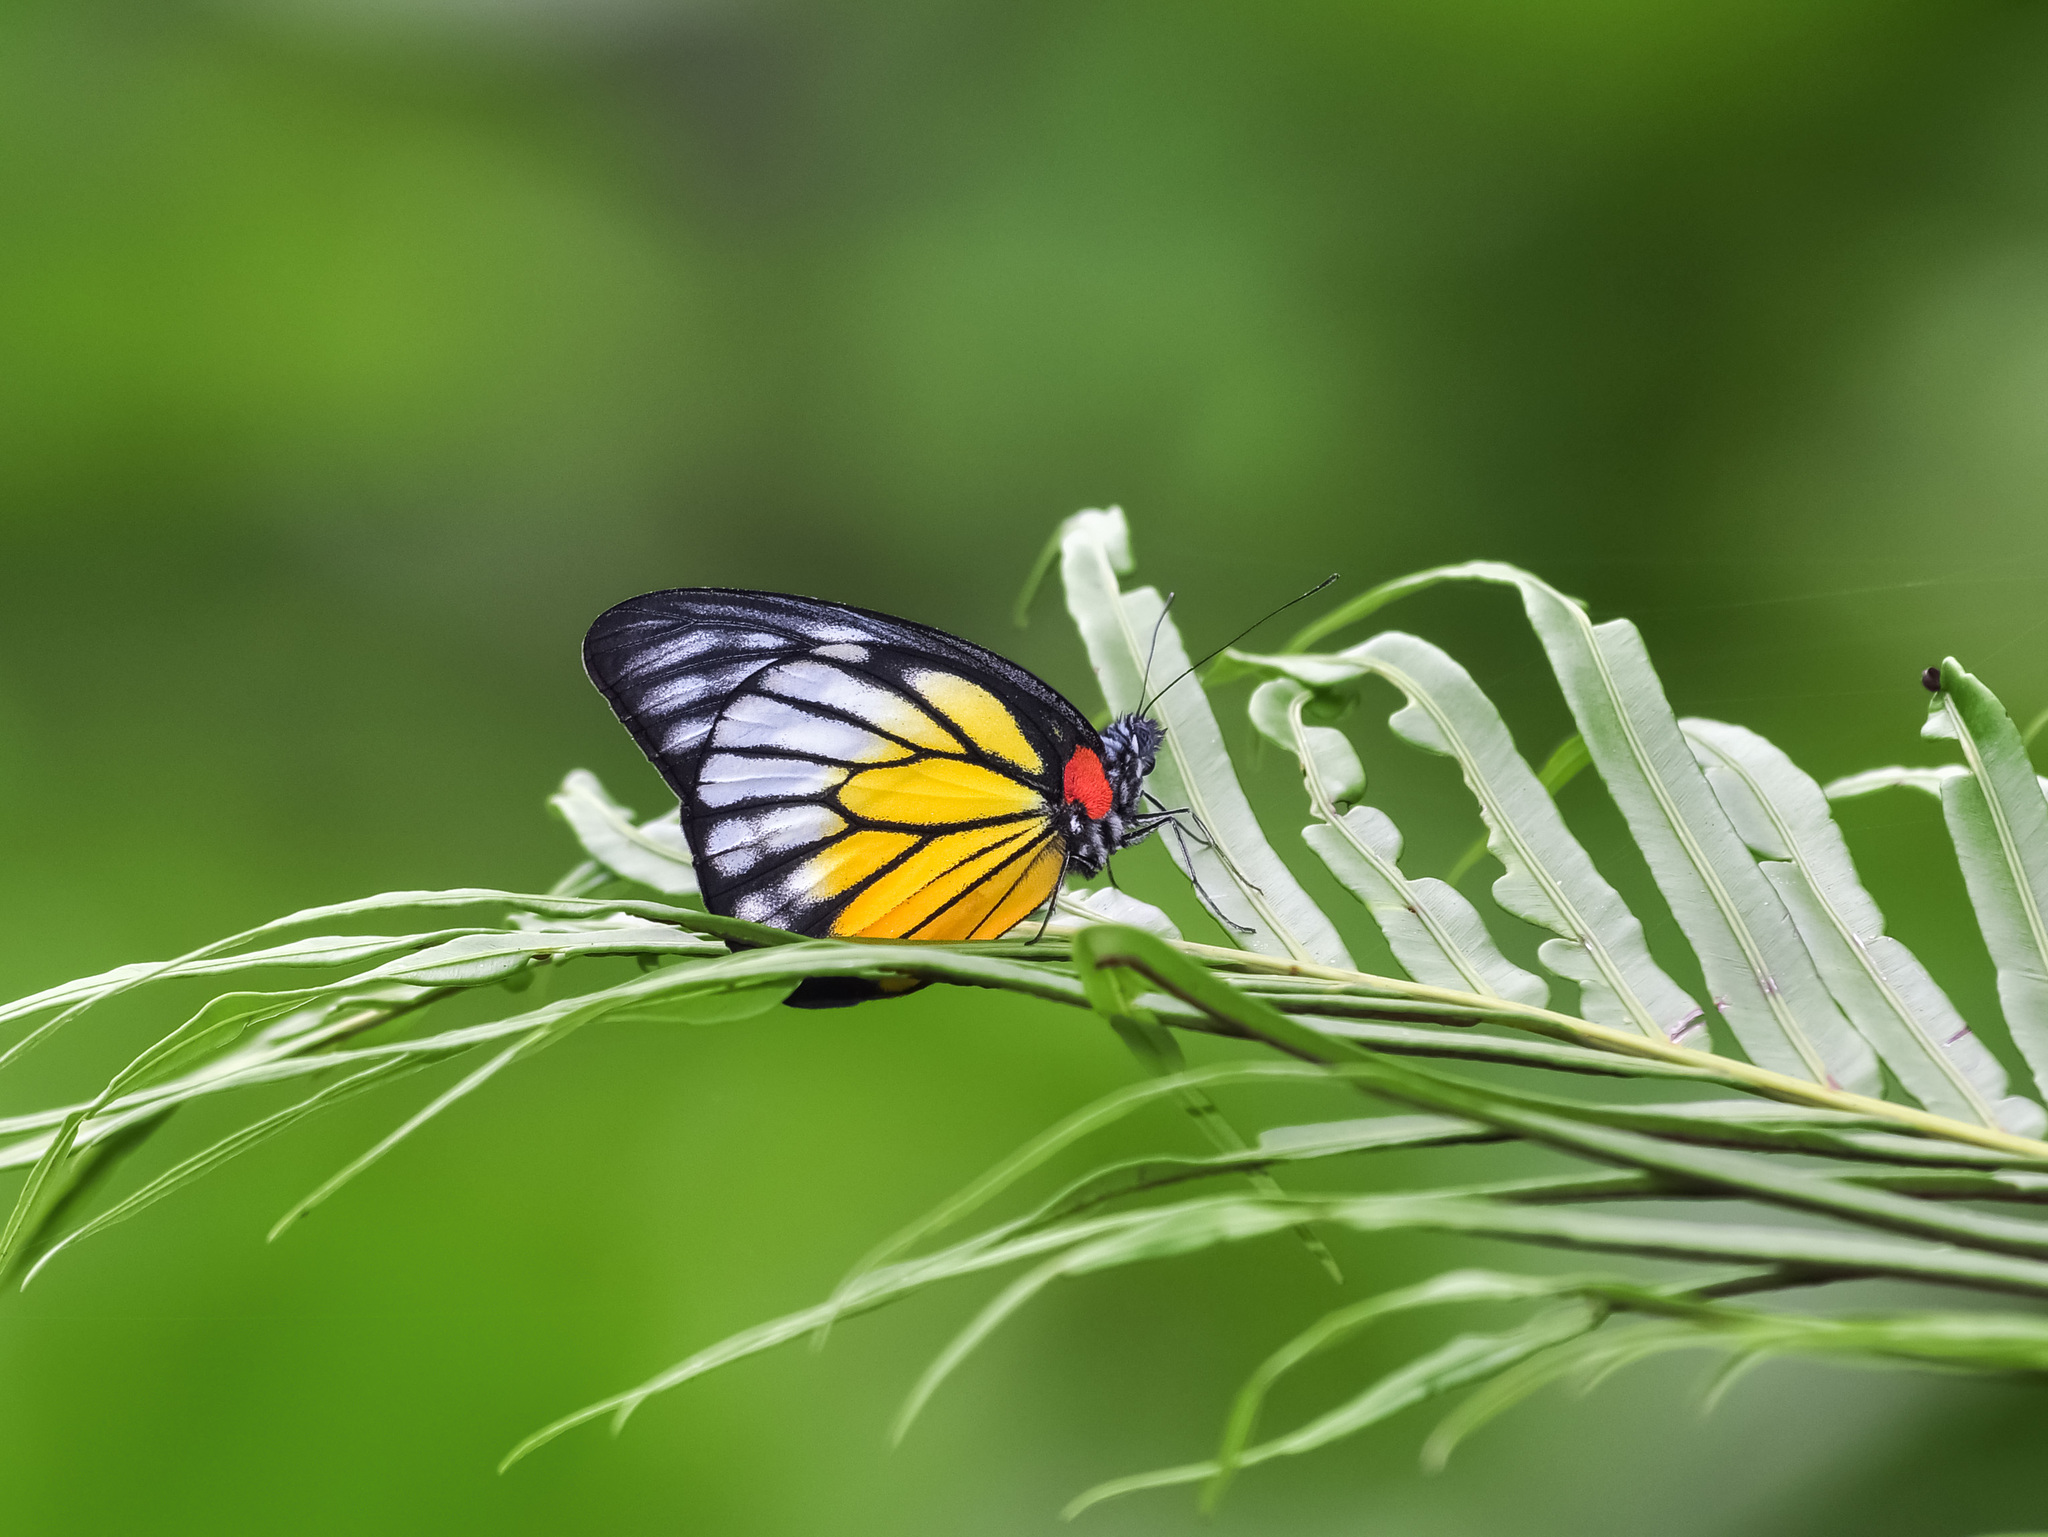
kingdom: Animalia
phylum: Arthropoda
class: Insecta
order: Lepidoptera
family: Pieridae
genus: Prioneris
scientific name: Prioneris philonome
